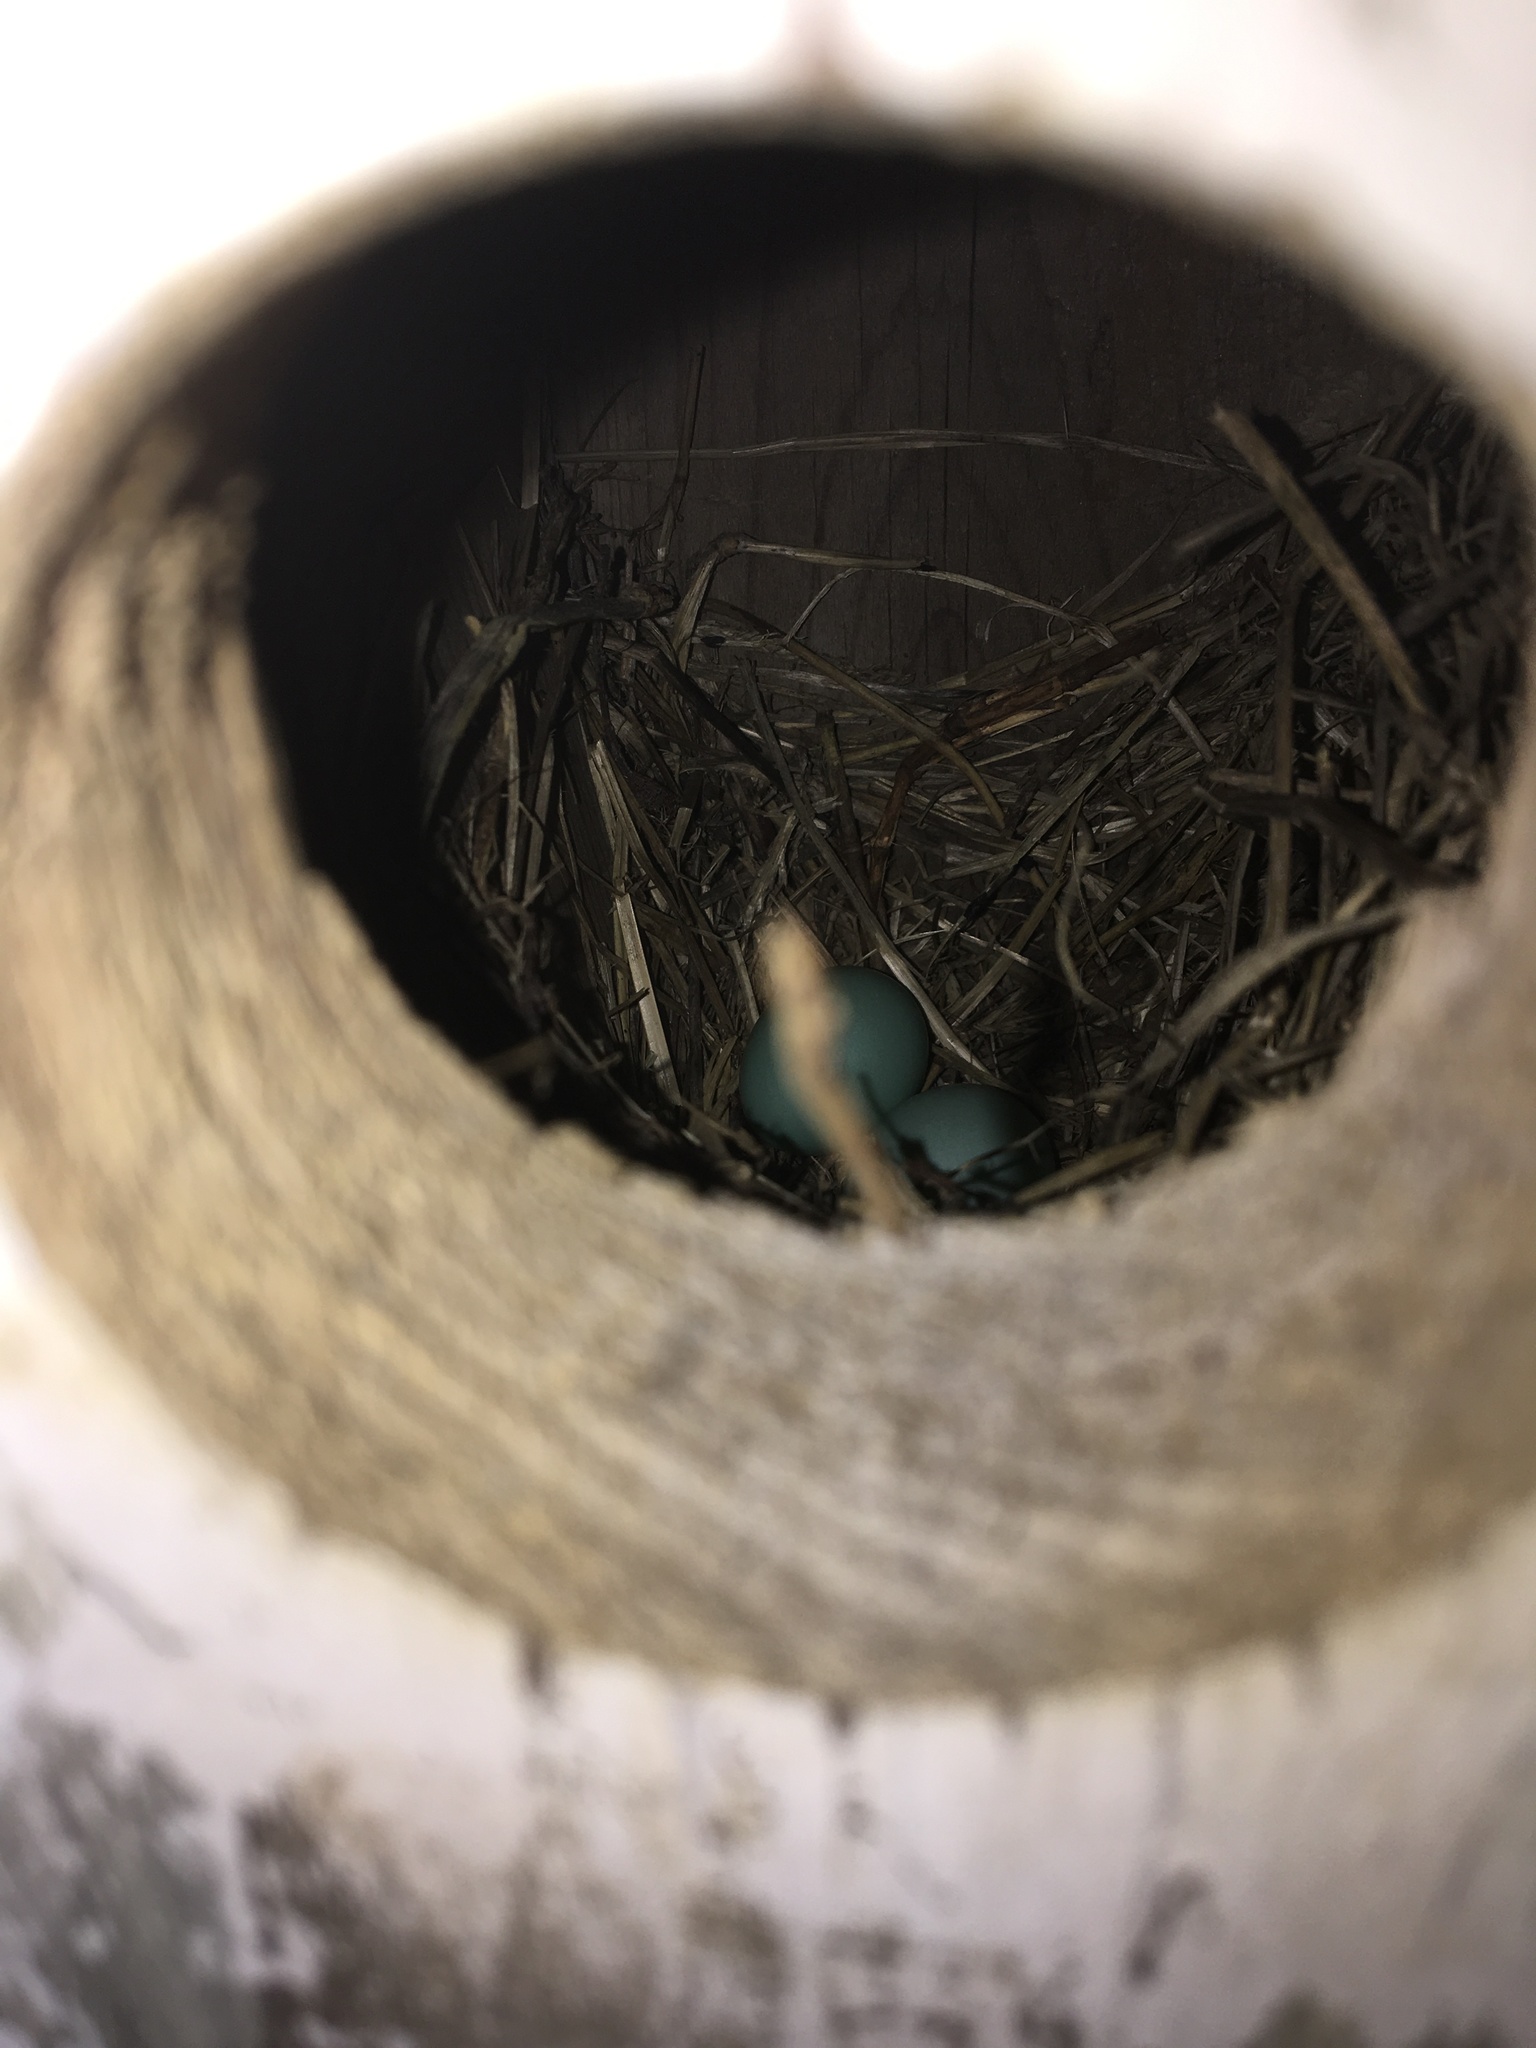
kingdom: Animalia
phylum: Chordata
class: Aves
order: Passeriformes
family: Turdidae
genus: Sialia
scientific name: Sialia sialis
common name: Eastern bluebird
